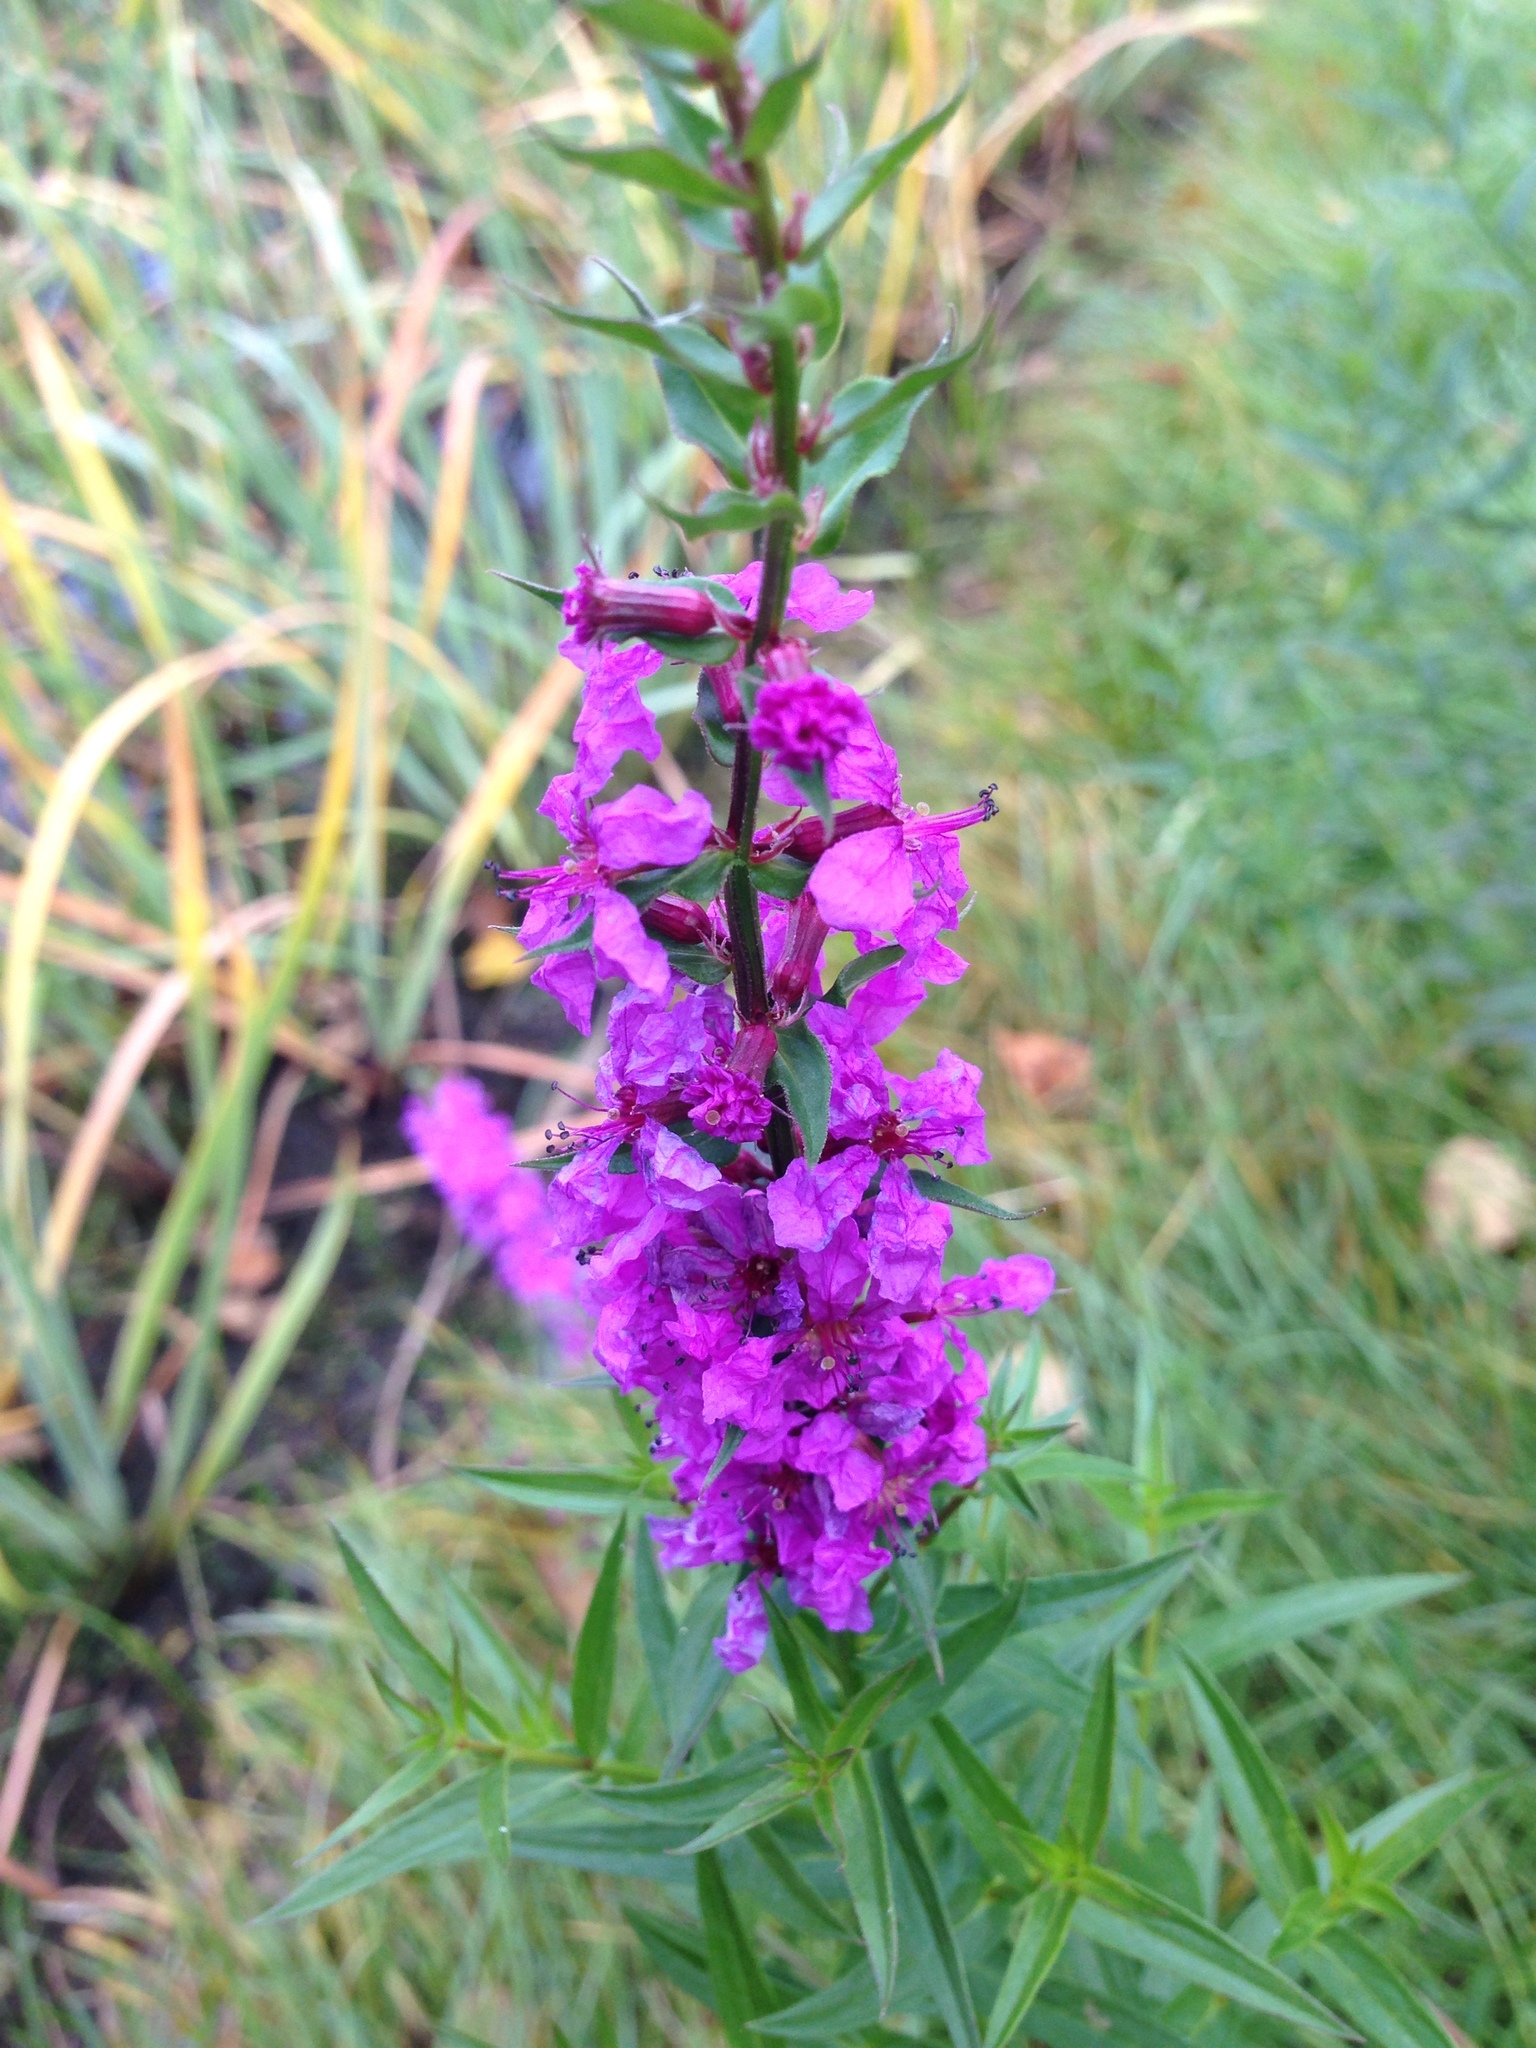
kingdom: Plantae
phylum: Tracheophyta
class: Magnoliopsida
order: Myrtales
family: Lythraceae
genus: Lythrum
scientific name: Lythrum salicaria
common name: Purple loosestrife
